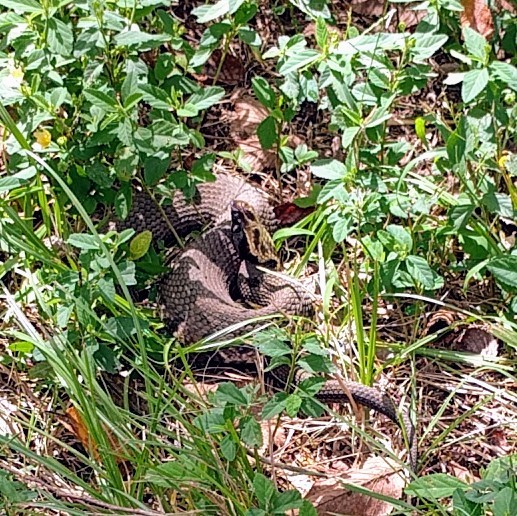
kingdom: Animalia
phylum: Chordata
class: Squamata
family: Viperidae
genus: Agkistrodon
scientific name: Agkistrodon piscivorus
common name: Cottonmouth
